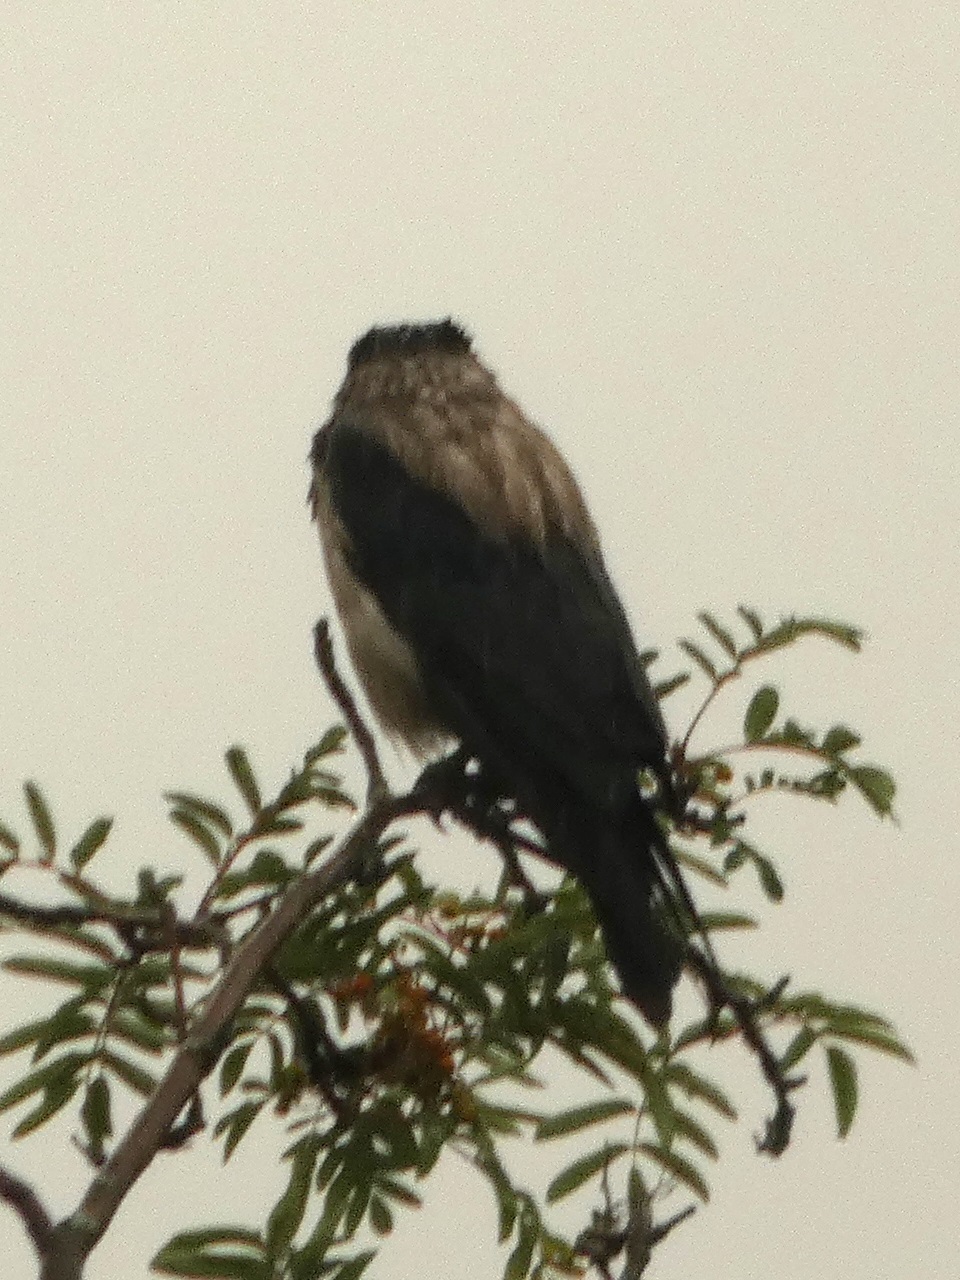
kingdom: Animalia
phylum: Chordata
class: Aves
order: Passeriformes
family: Corvidae
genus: Corvus
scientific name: Corvus cornix
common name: Hooded crow
